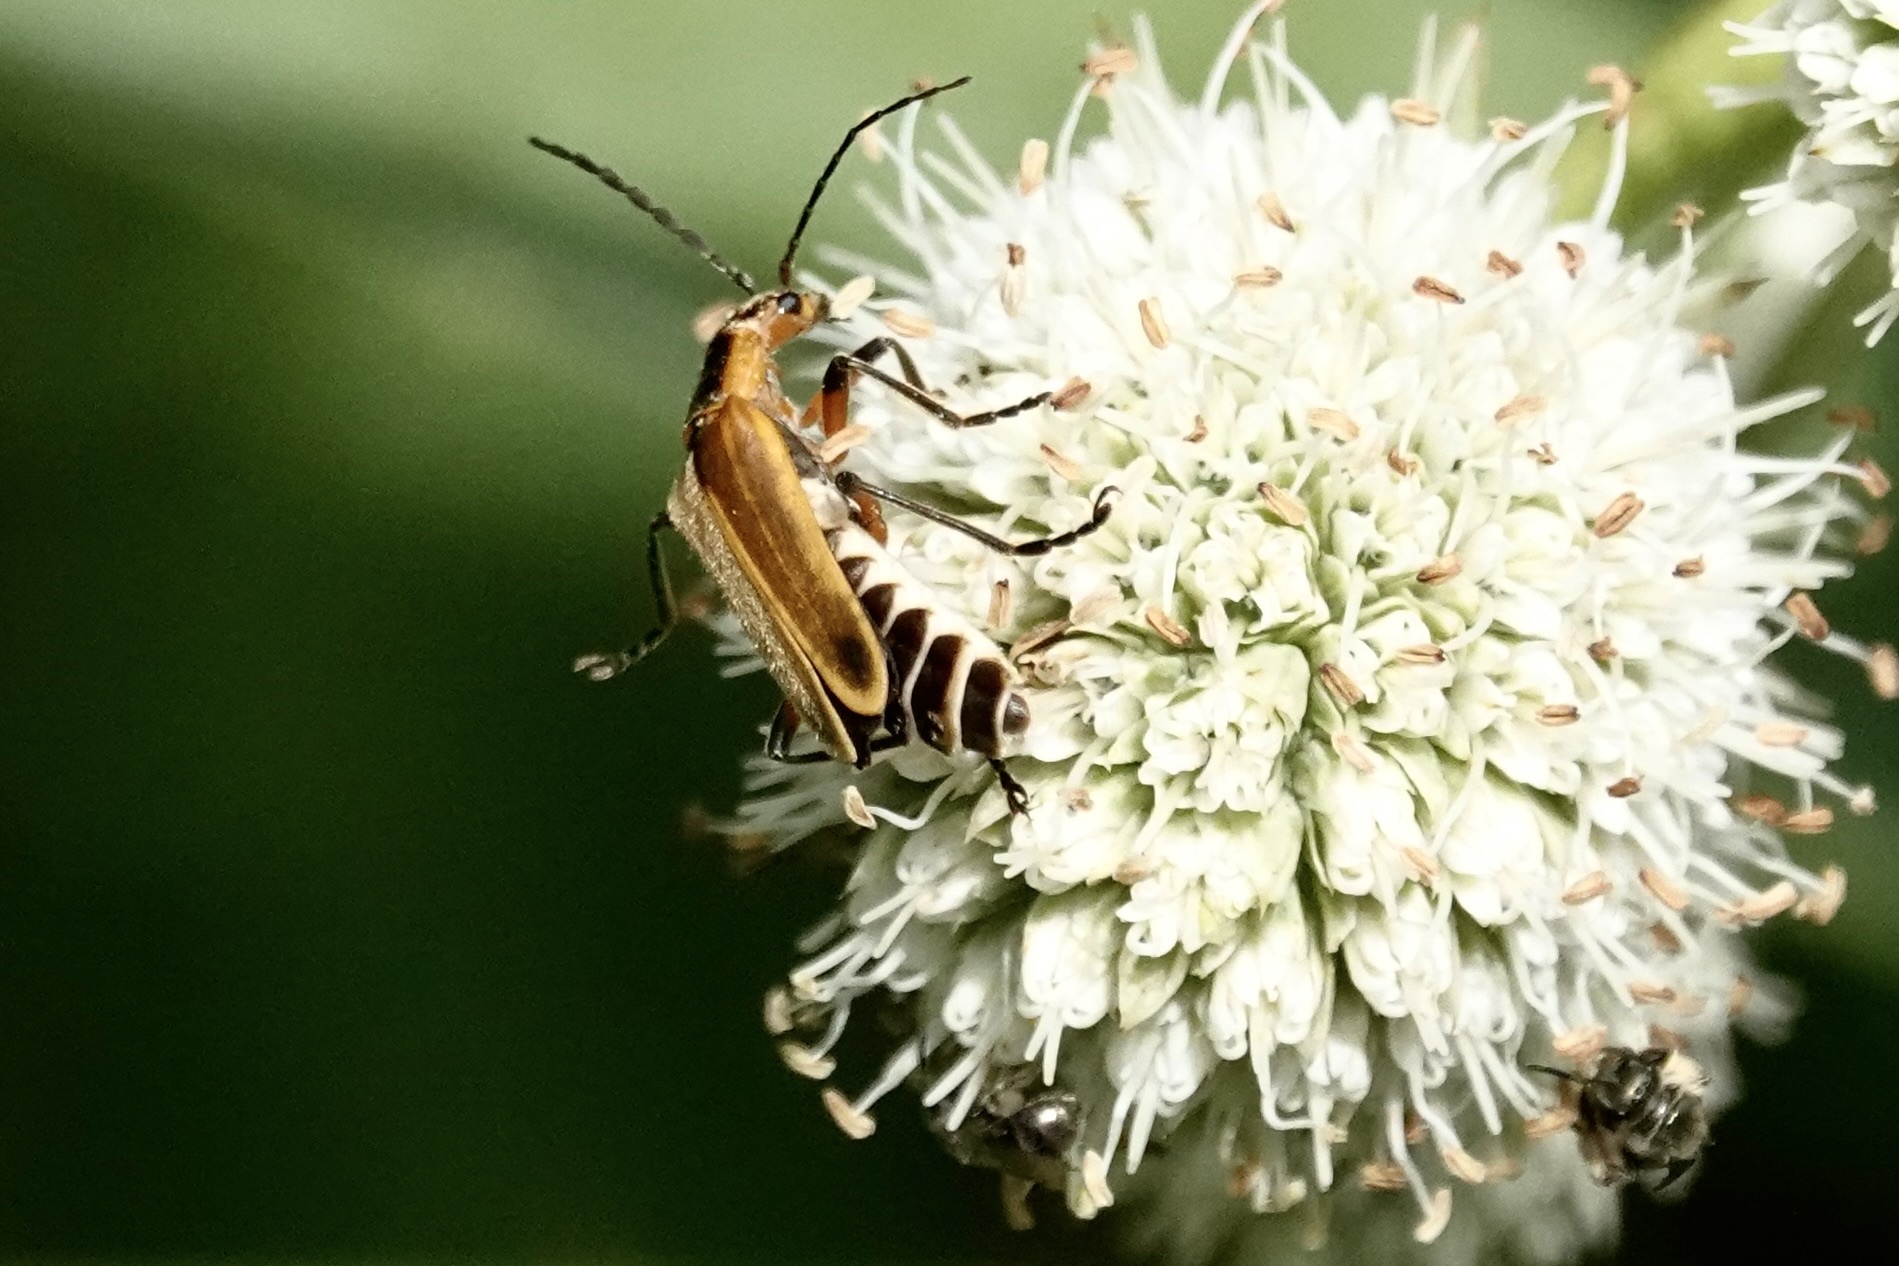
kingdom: Animalia
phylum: Arthropoda
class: Insecta
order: Coleoptera
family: Cantharidae
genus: Chauliognathus
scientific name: Chauliognathus marginatus
